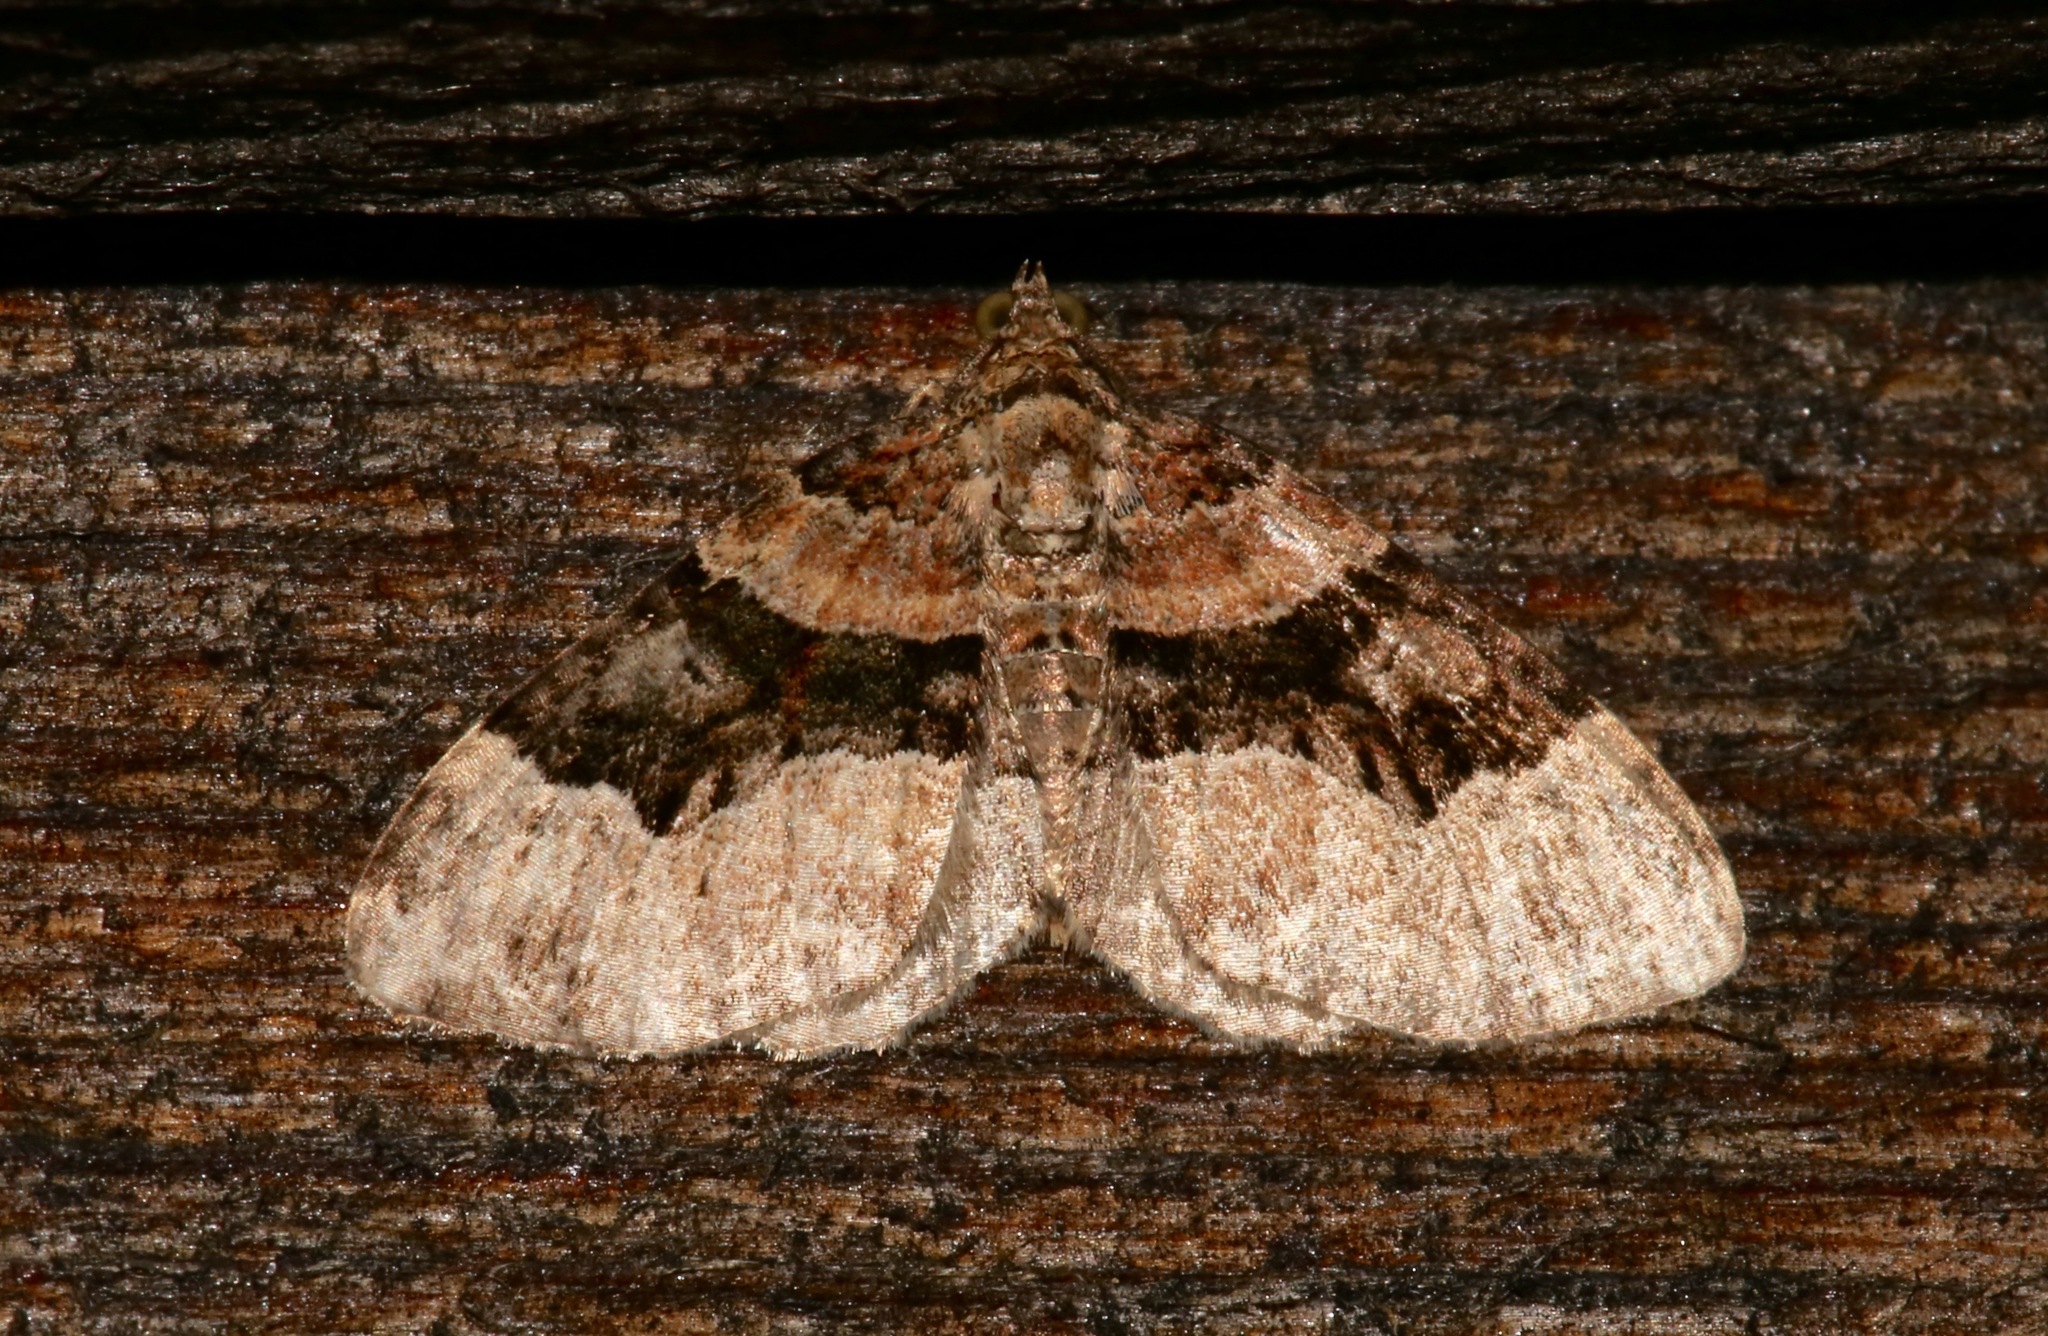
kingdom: Animalia
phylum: Arthropoda
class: Insecta
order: Lepidoptera
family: Geometridae
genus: Xanthorhoe
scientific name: Xanthorhoe lacustrata
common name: Toothed brown carpet
